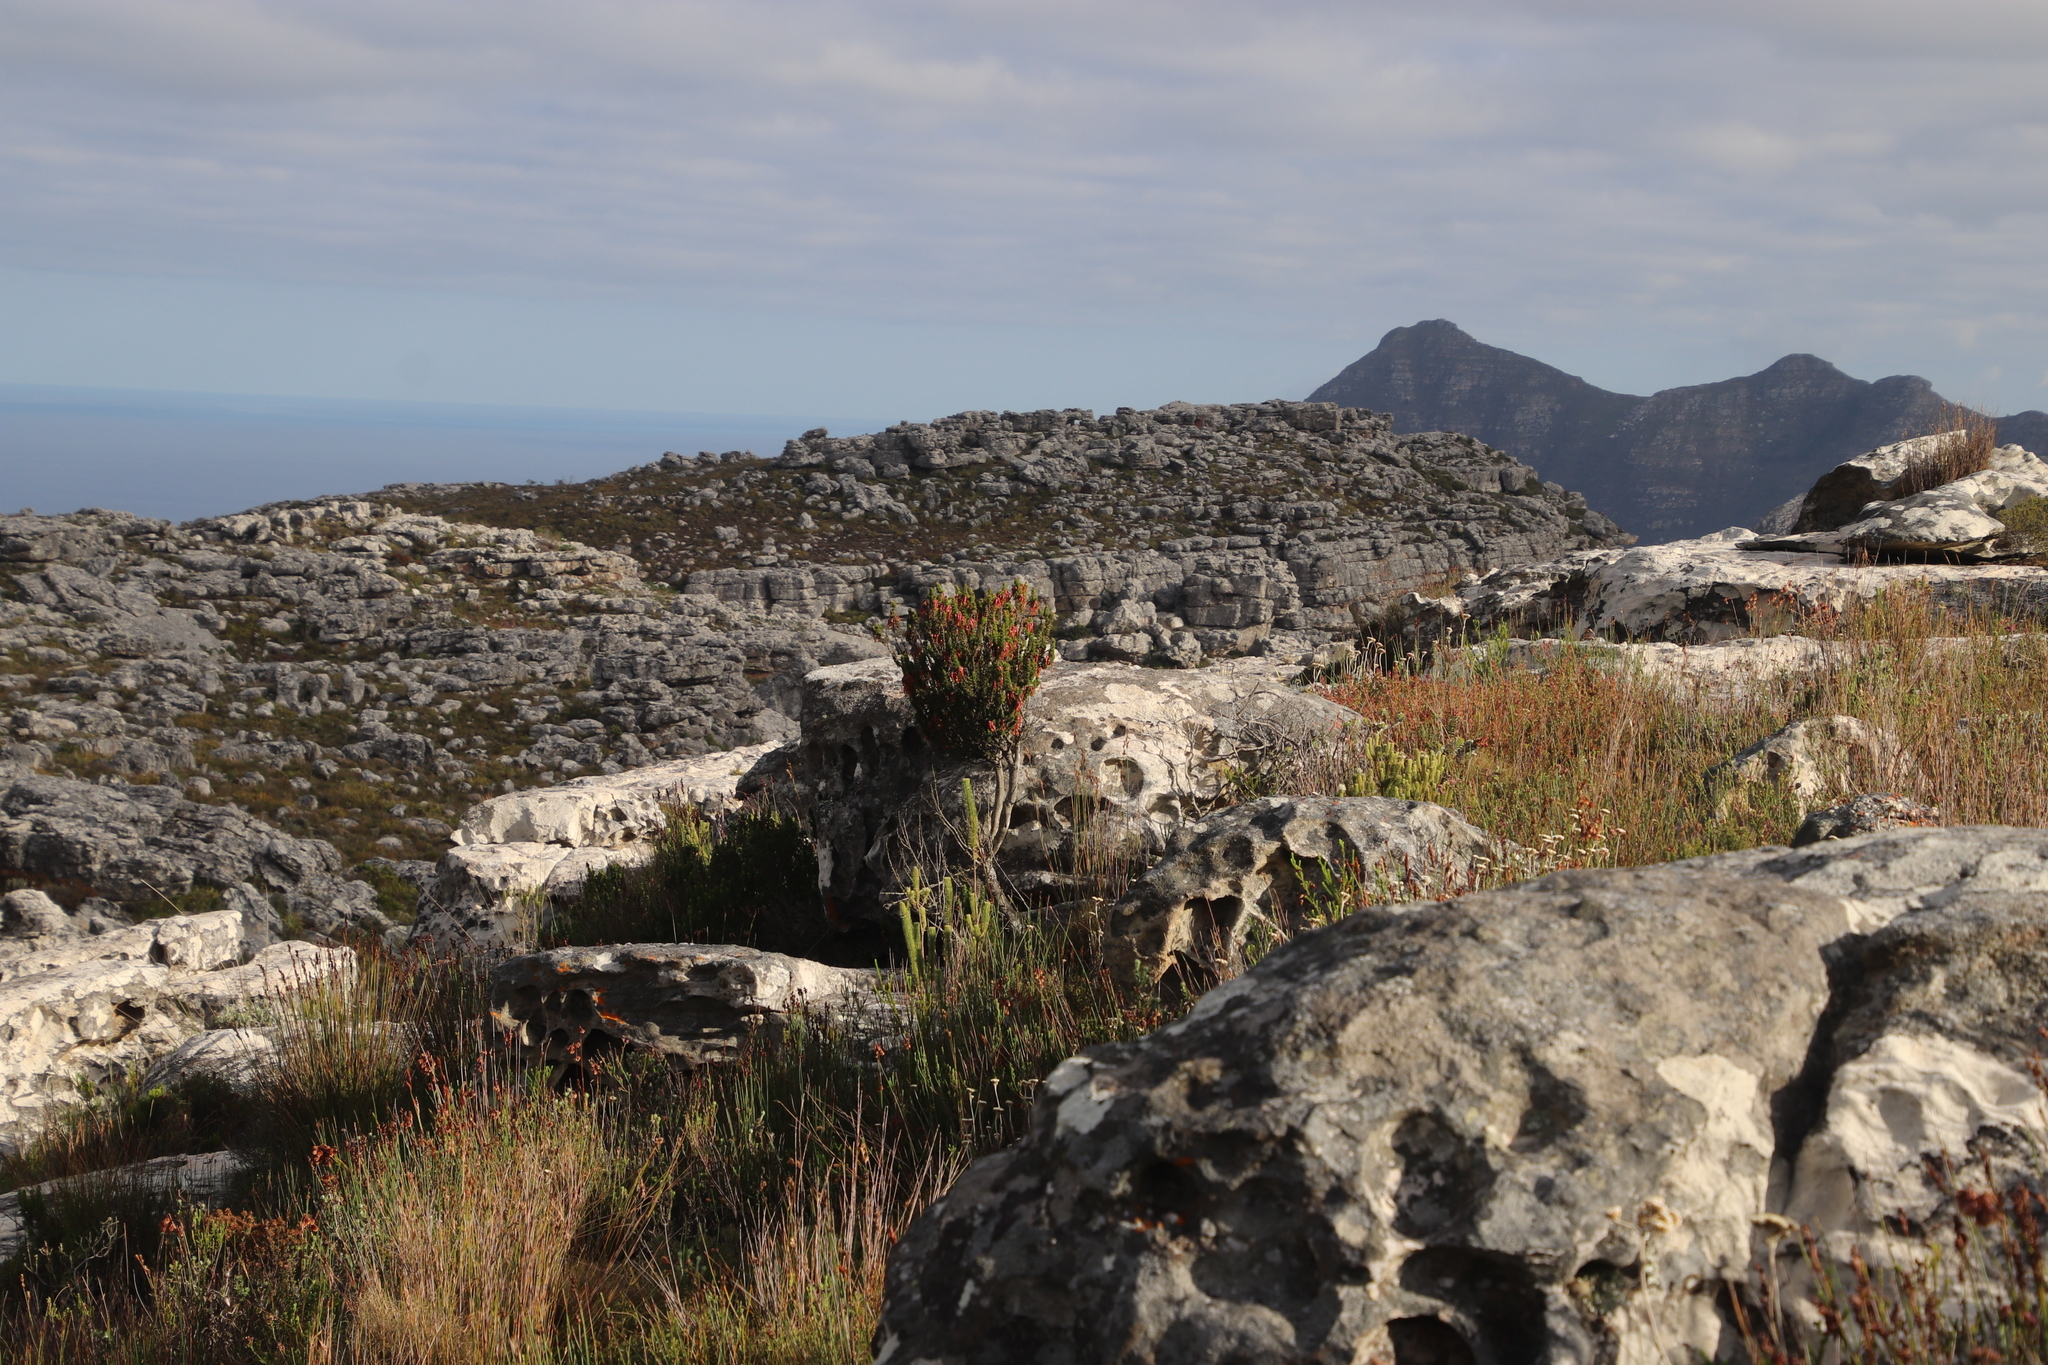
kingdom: Plantae
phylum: Tracheophyta
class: Magnoliopsida
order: Ericales
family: Ericaceae
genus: Erica
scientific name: Erica coccinea
